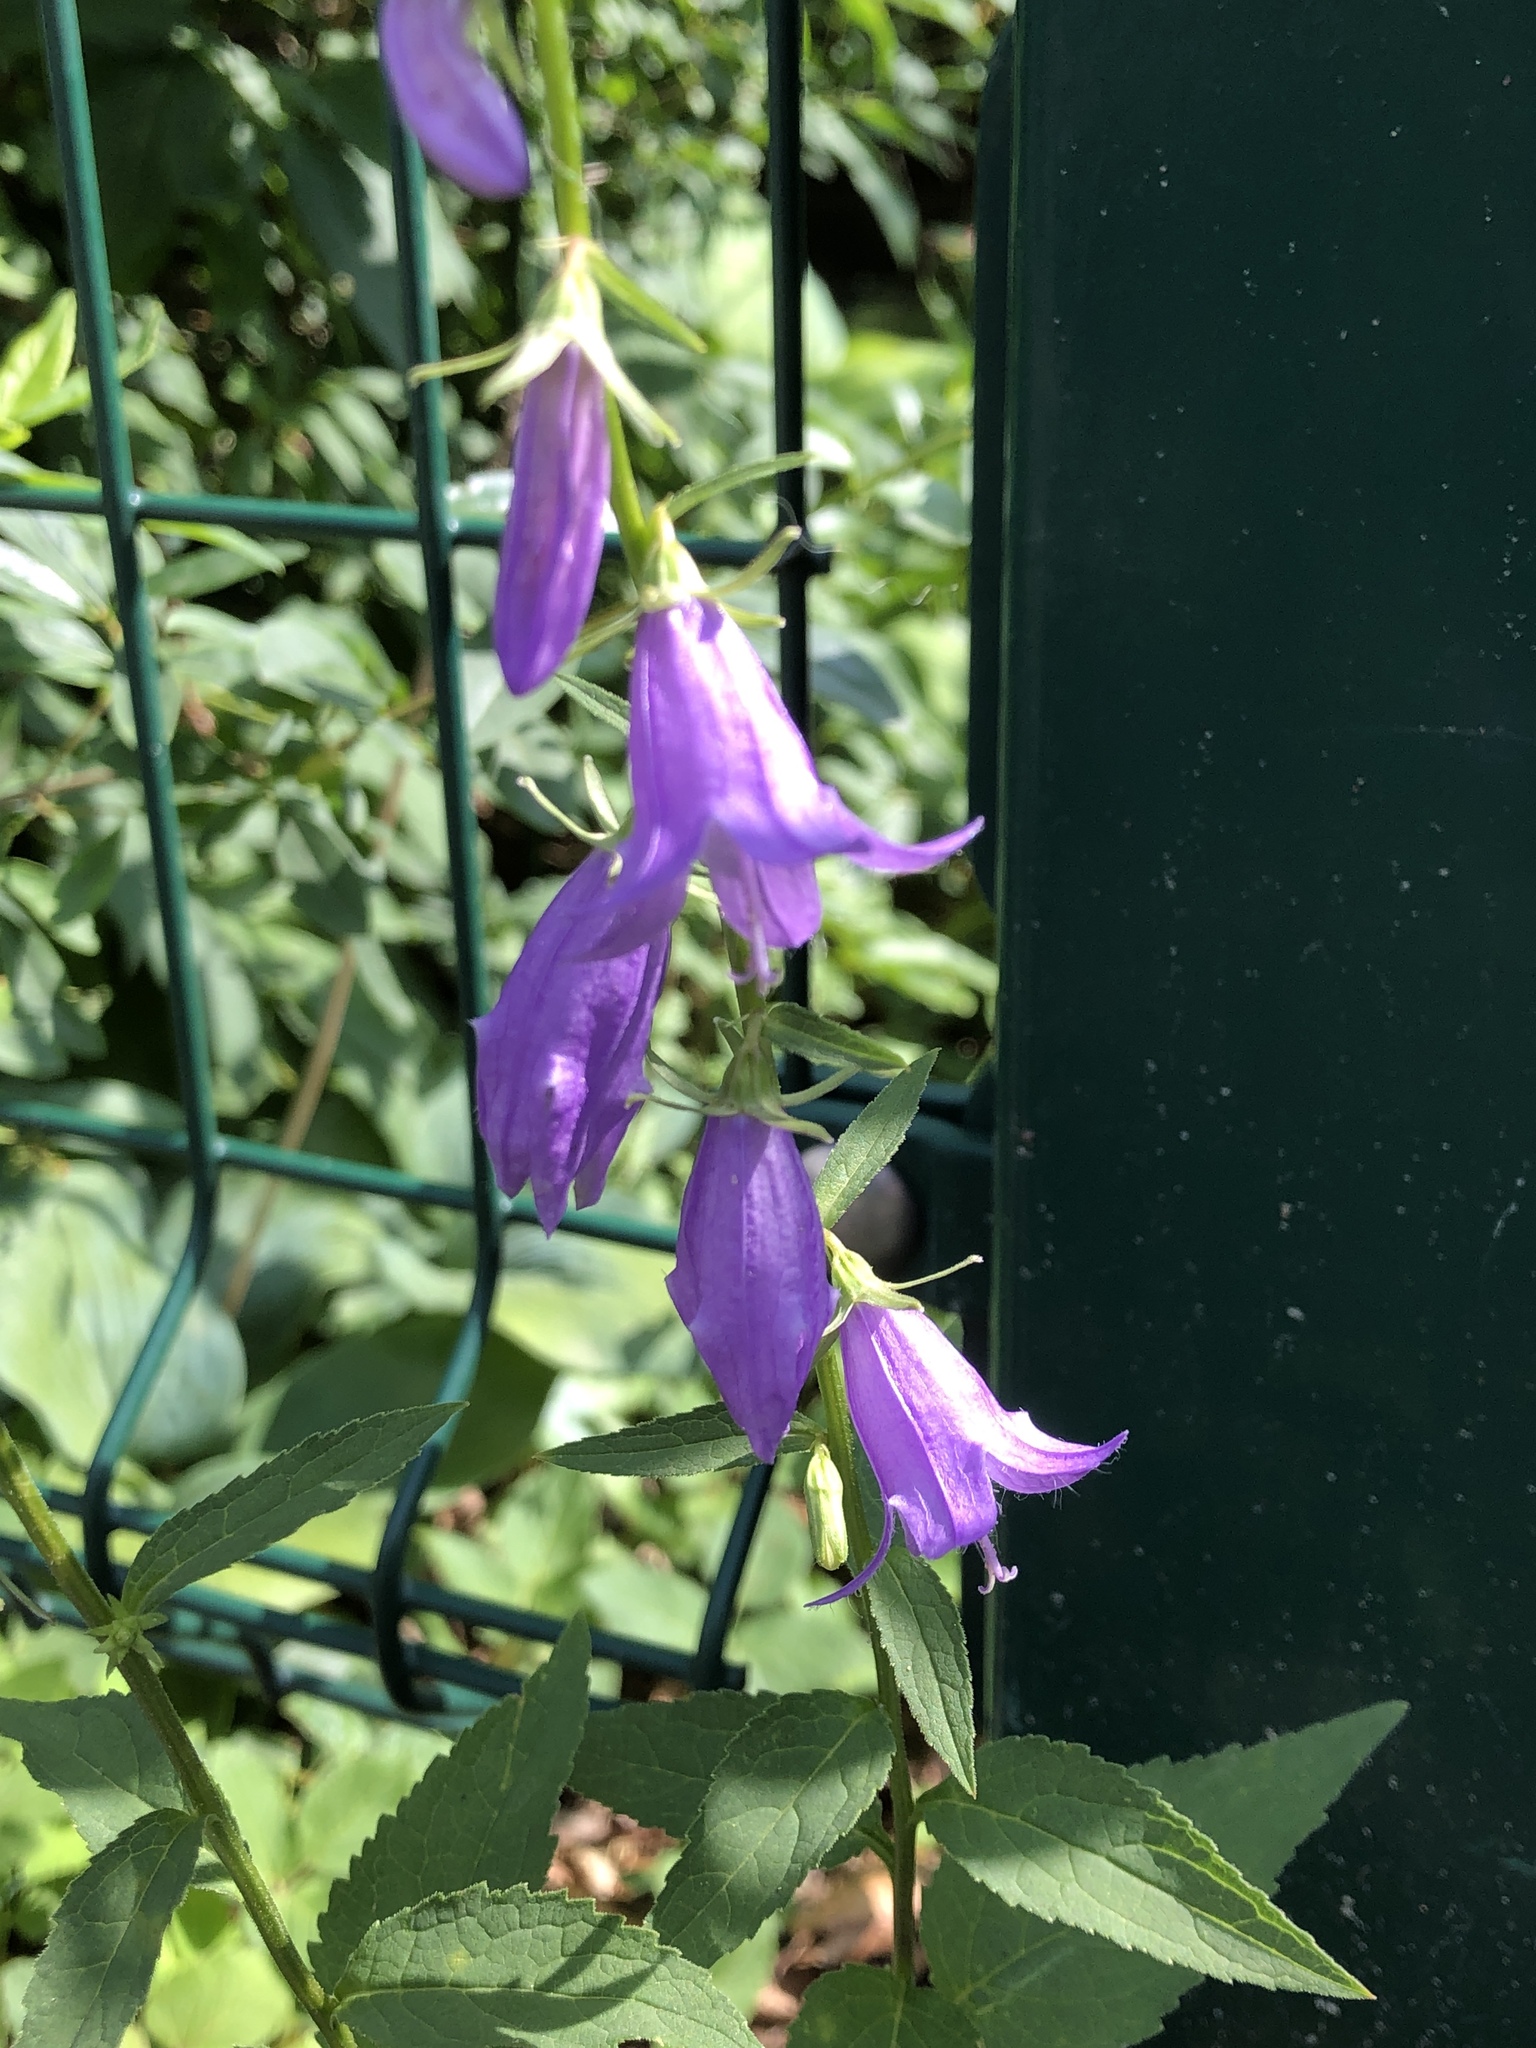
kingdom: Plantae
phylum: Tracheophyta
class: Magnoliopsida
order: Asterales
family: Campanulaceae
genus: Campanula
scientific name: Campanula rapunculoides
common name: Creeping bellflower
